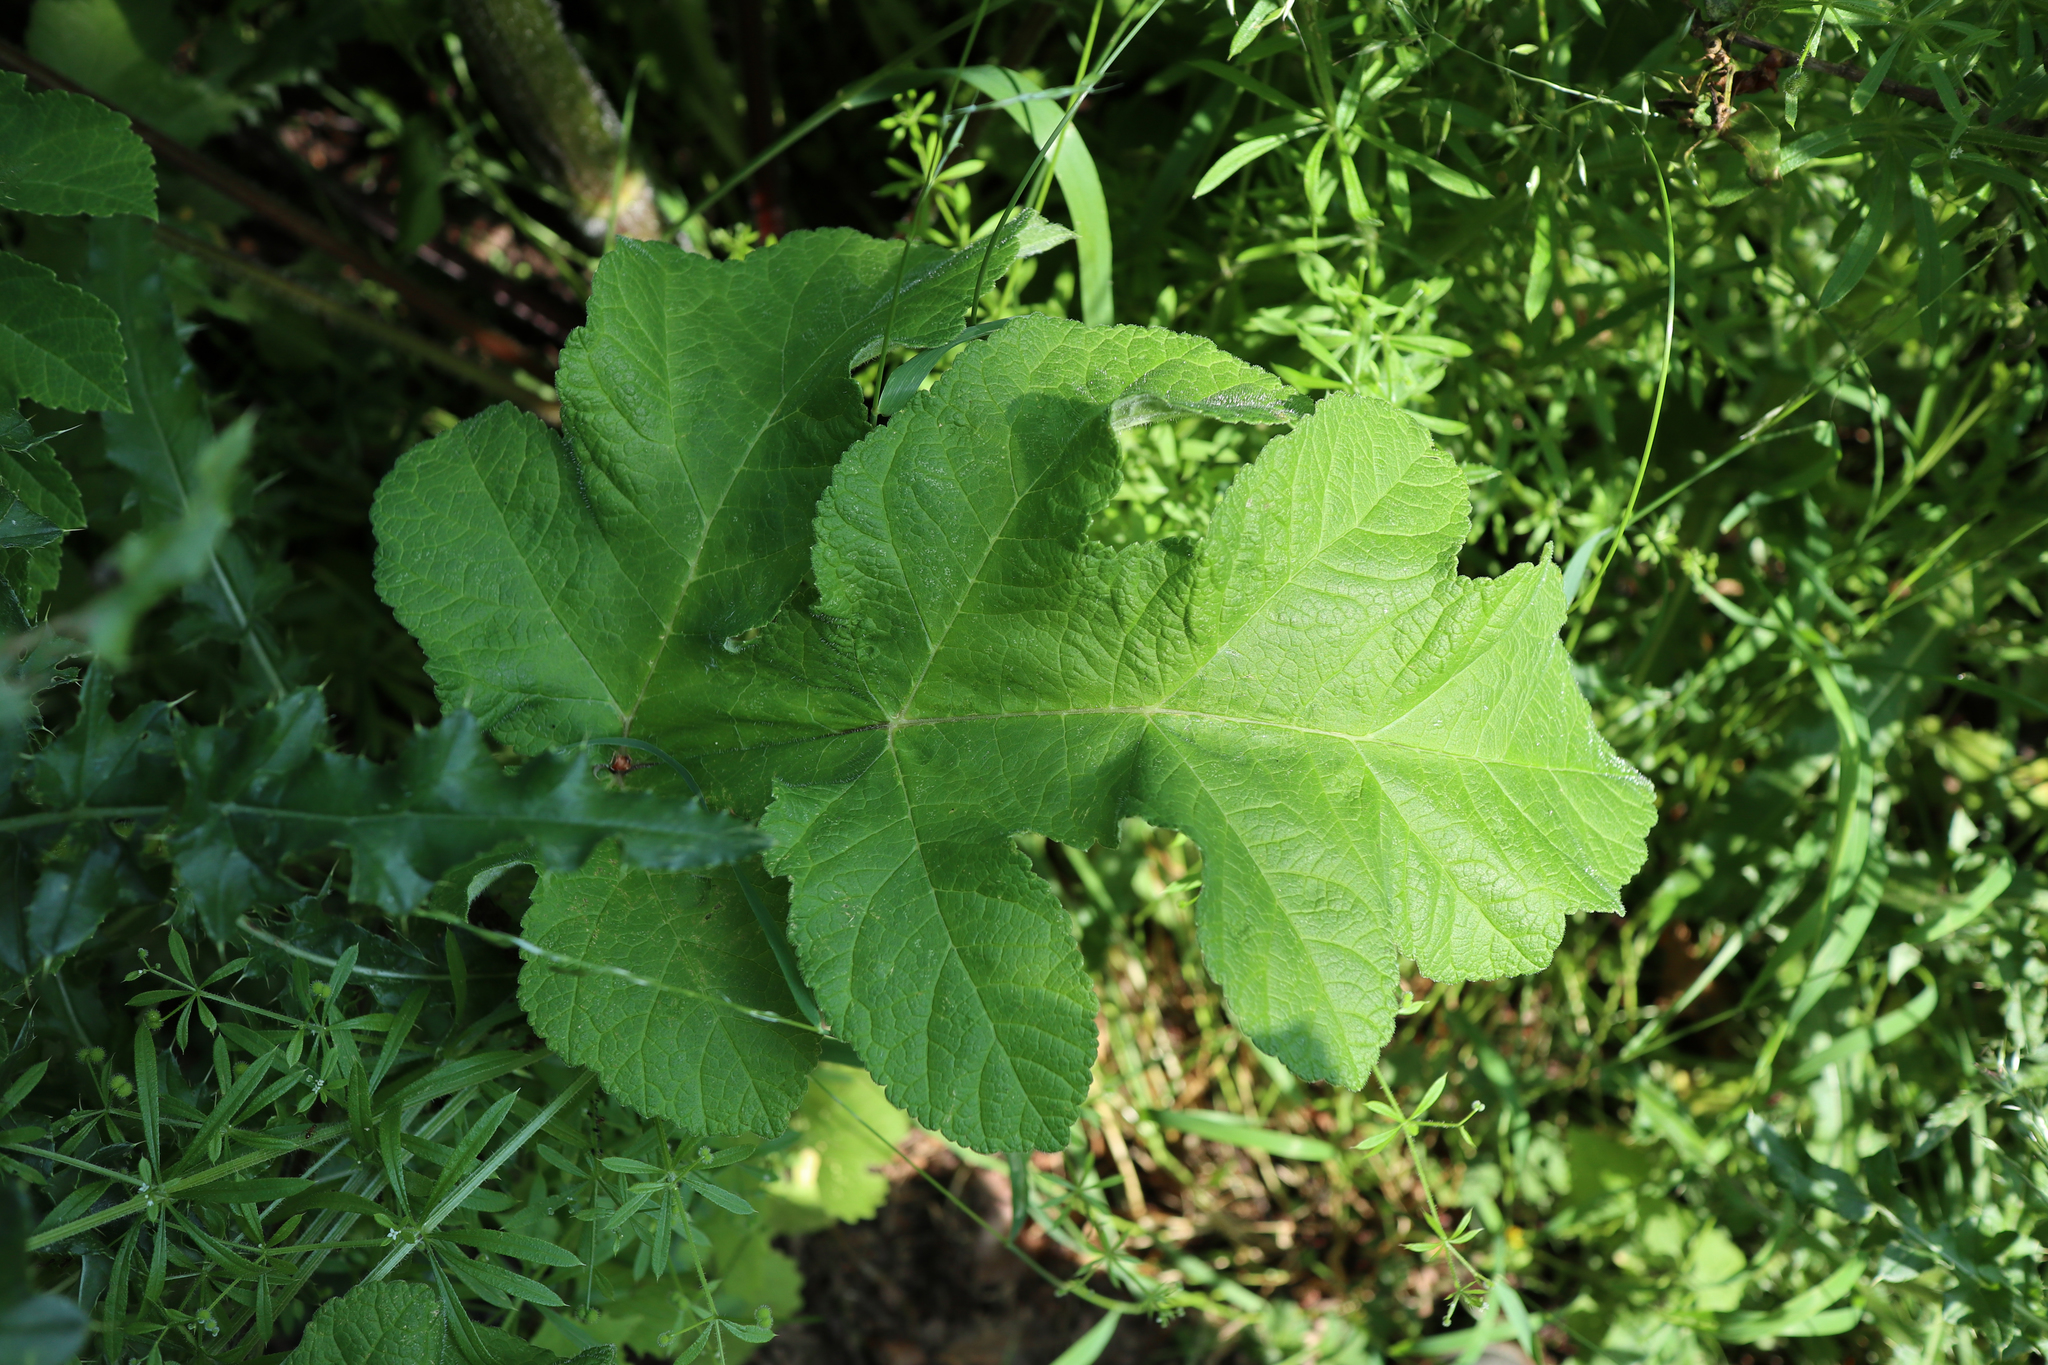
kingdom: Plantae
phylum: Tracheophyta
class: Magnoliopsida
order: Apiales
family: Apiaceae
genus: Heracleum
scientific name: Heracleum sphondylium
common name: Hogweed
